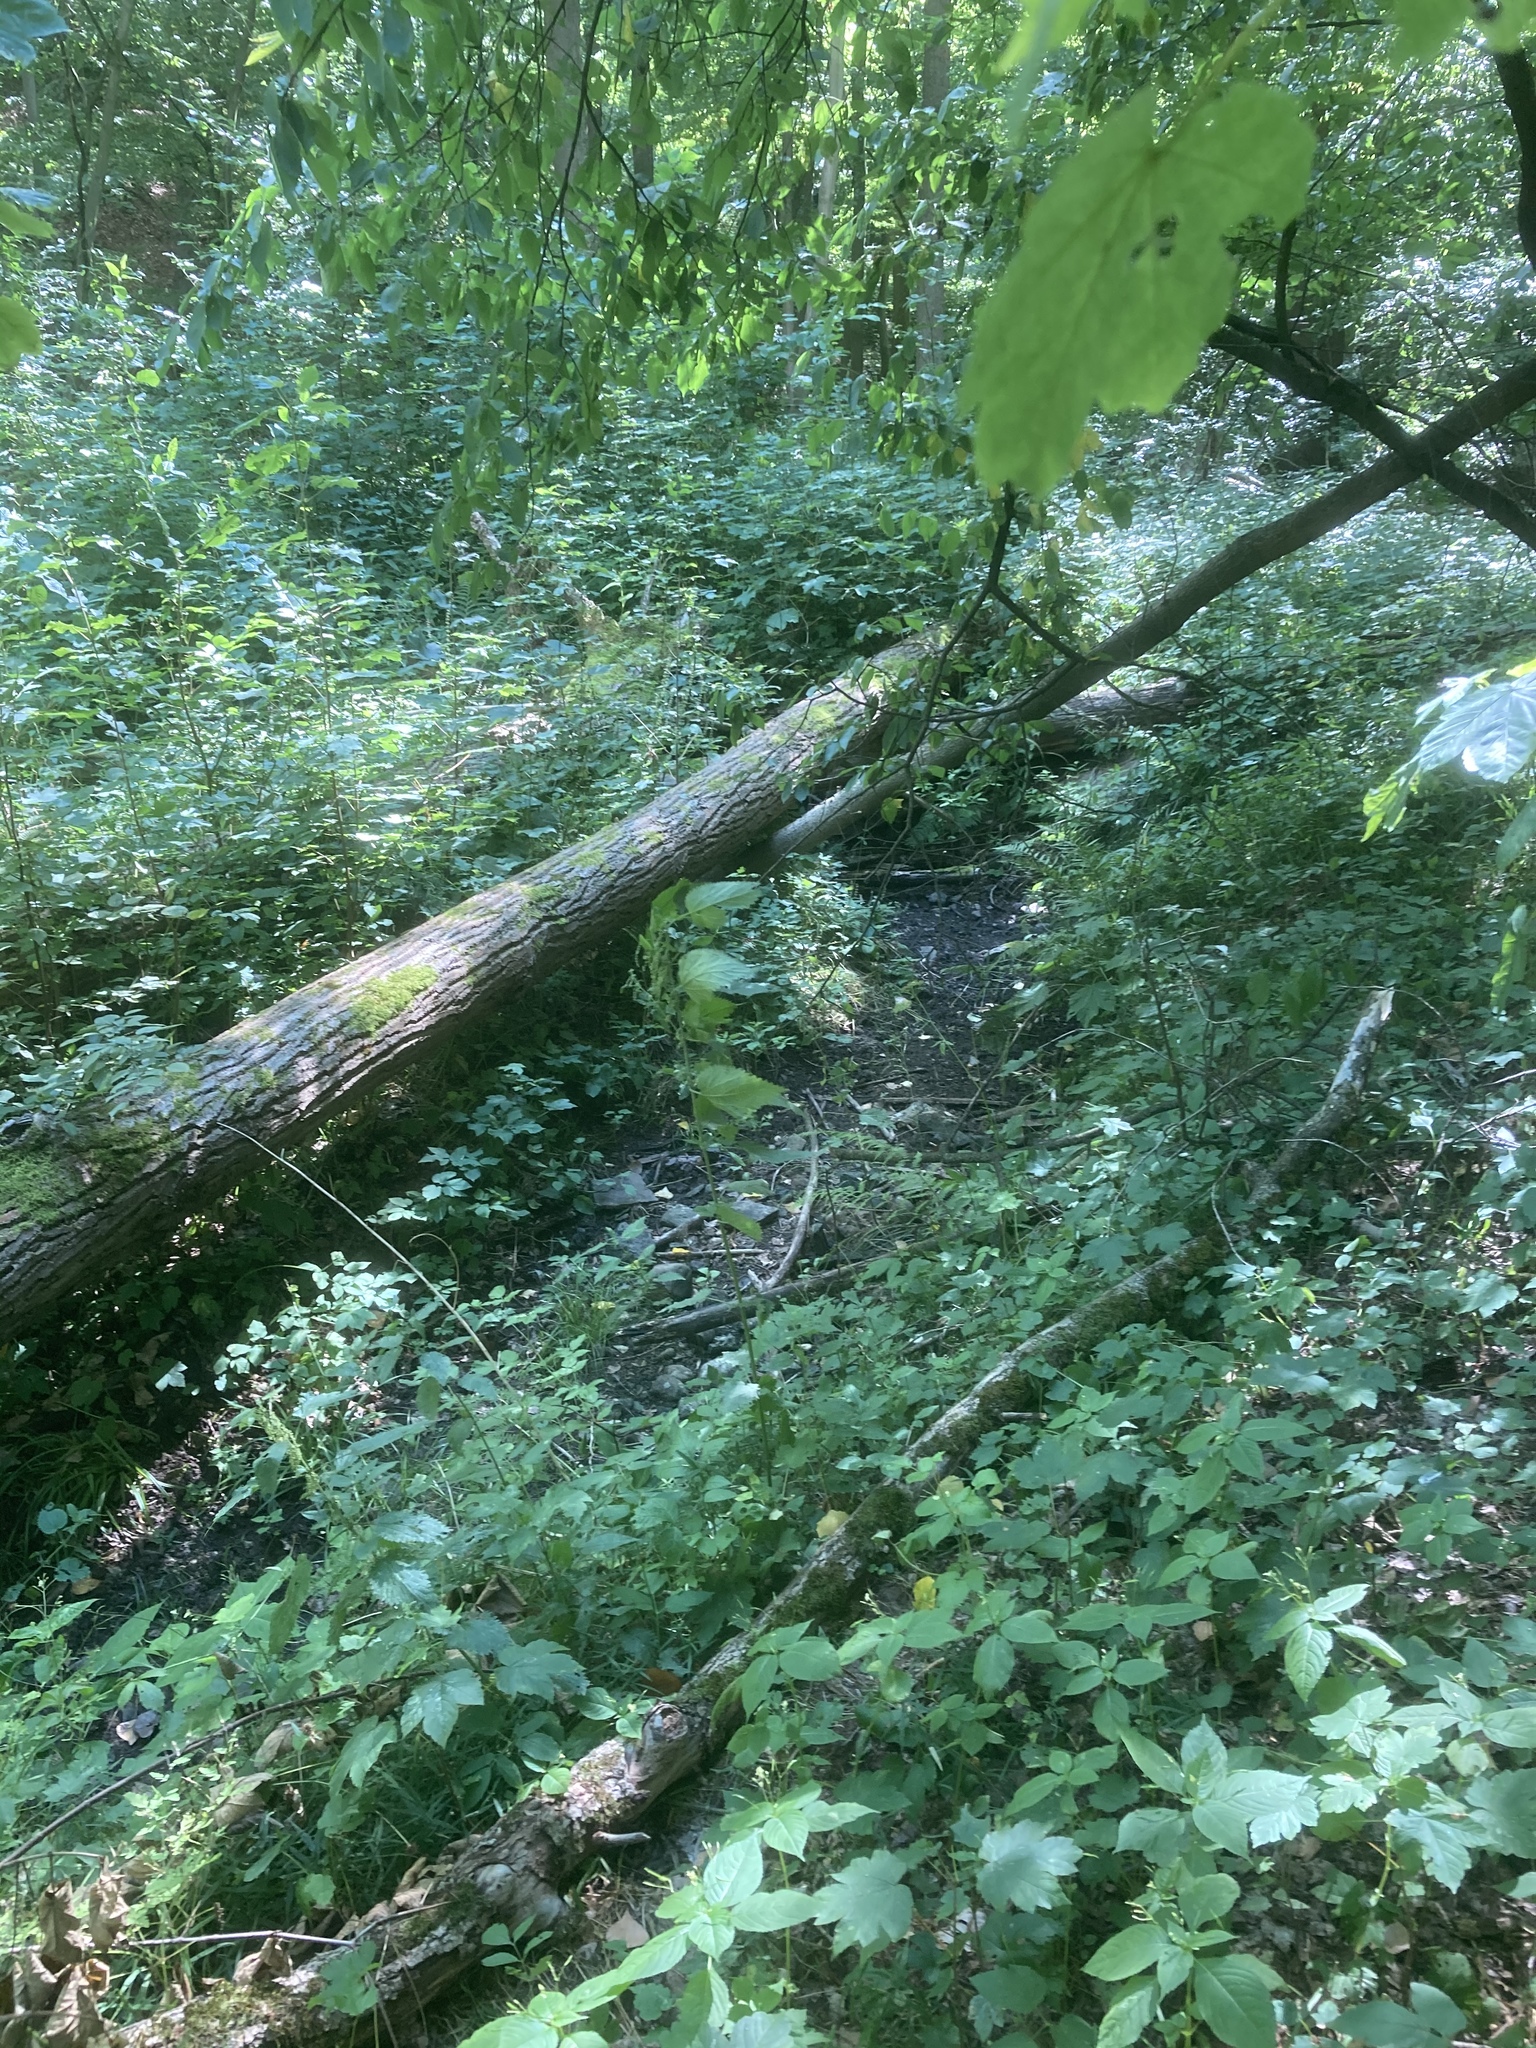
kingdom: Plantae
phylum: Tracheophyta
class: Magnoliopsida
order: Ericales
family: Balsaminaceae
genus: Impatiens
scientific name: Impatiens parviflora
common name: Small balsam
